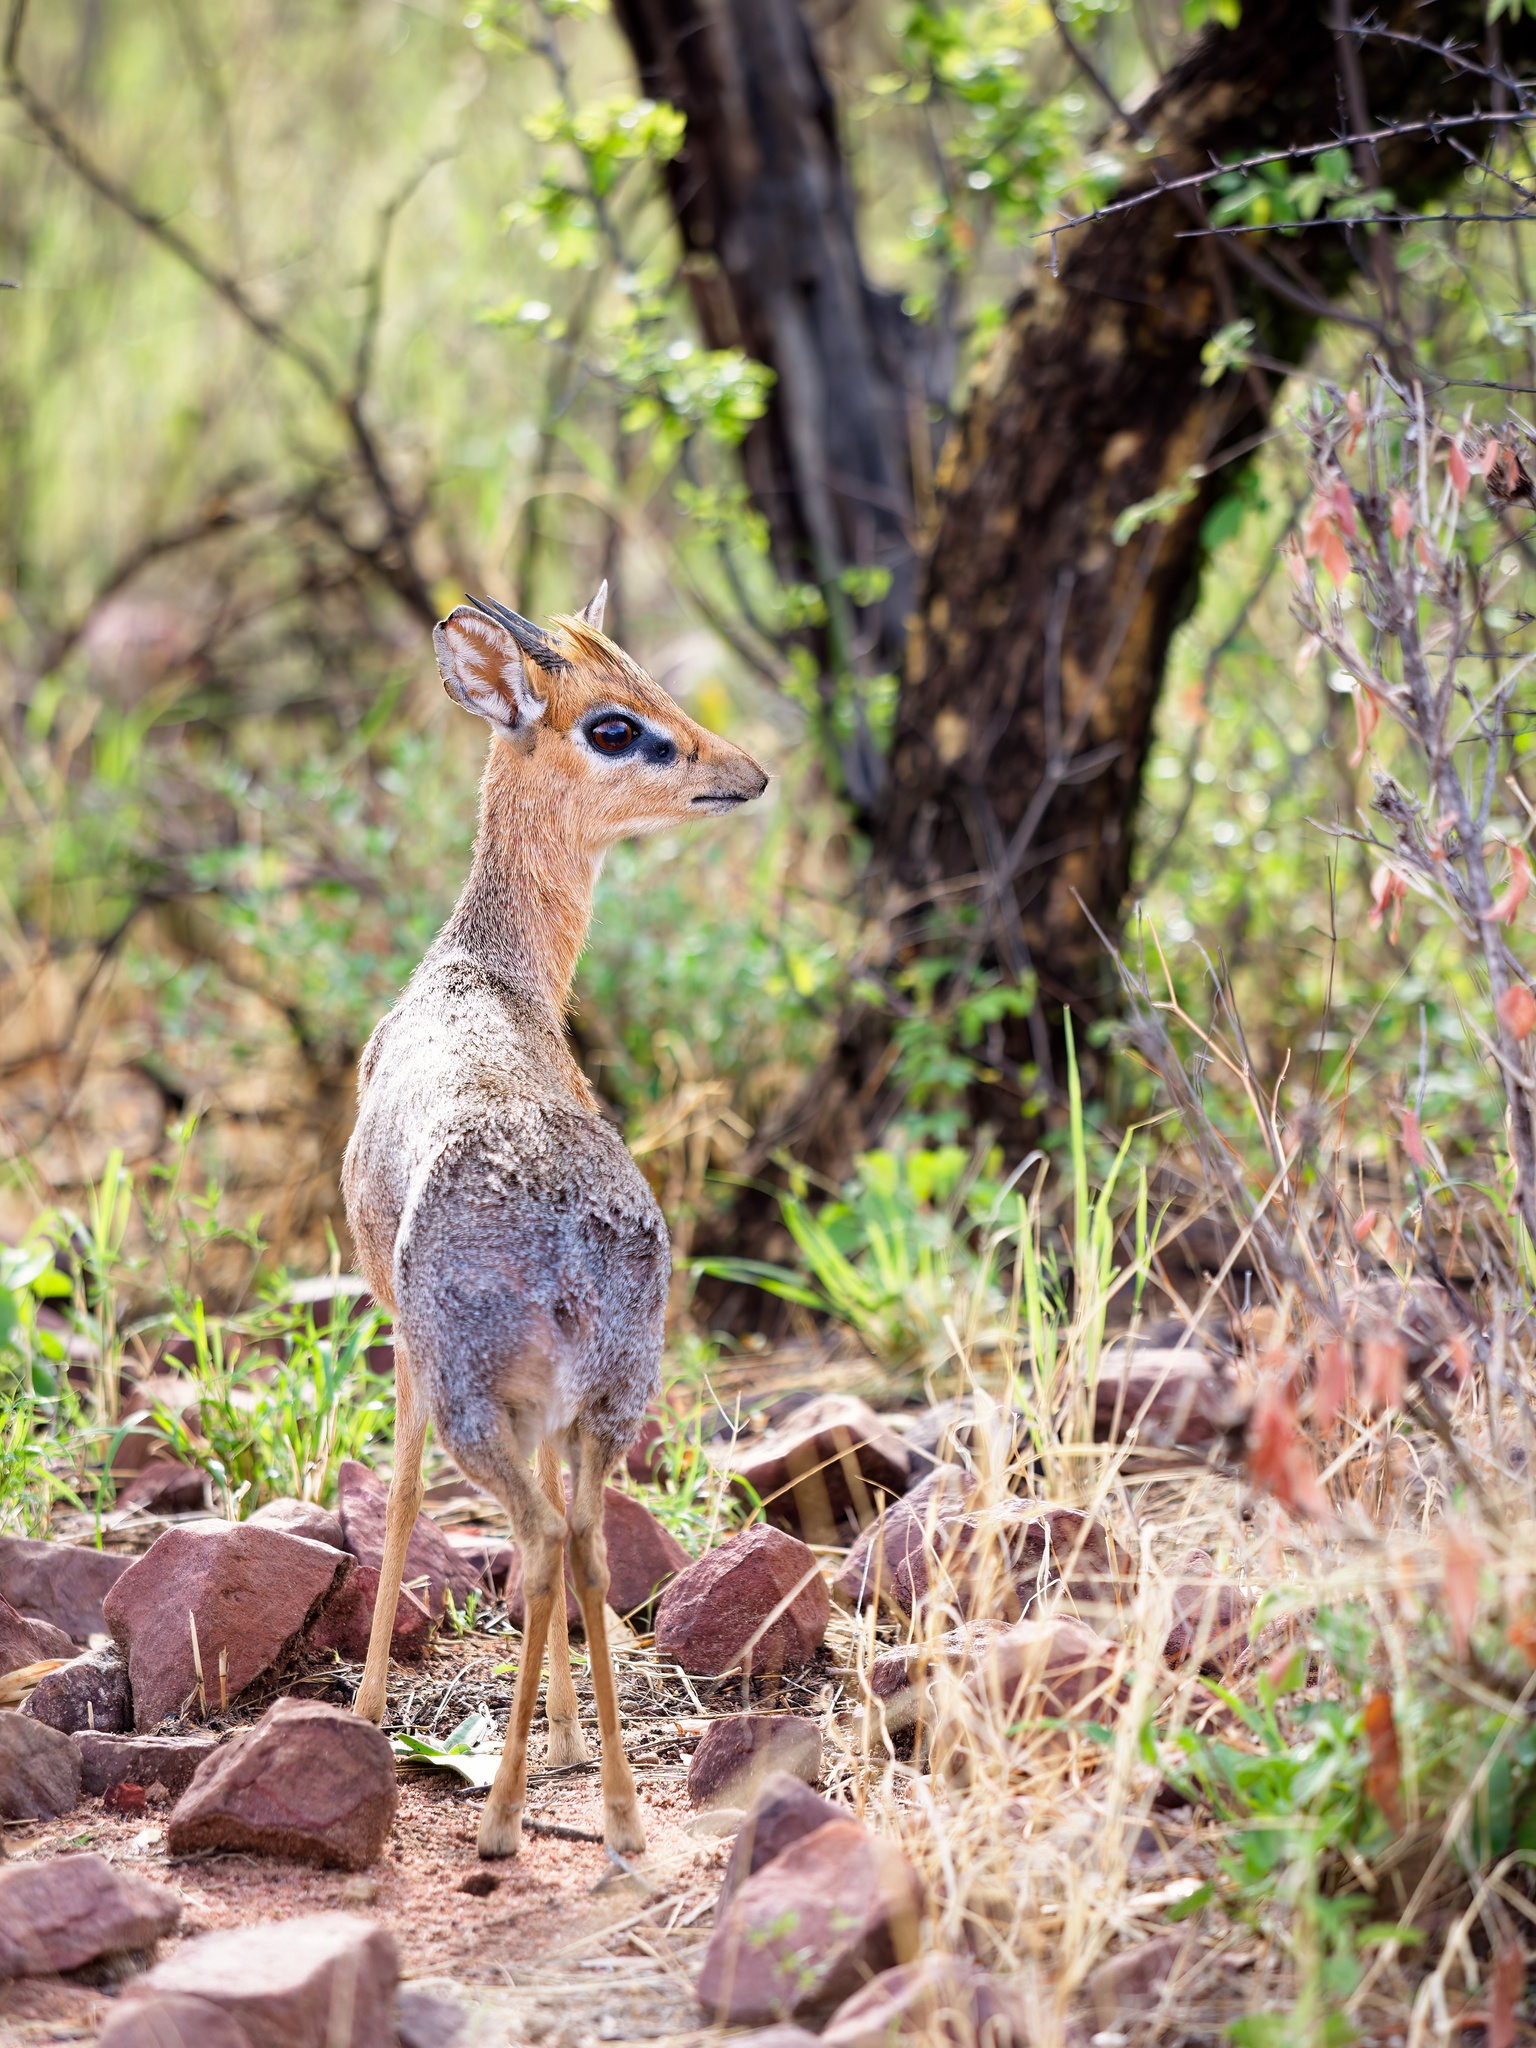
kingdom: Animalia
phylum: Chordata
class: Mammalia
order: Artiodactyla
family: Bovidae
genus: Madoqua
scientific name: Madoqua kirkii
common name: Kirk's dik-dik
